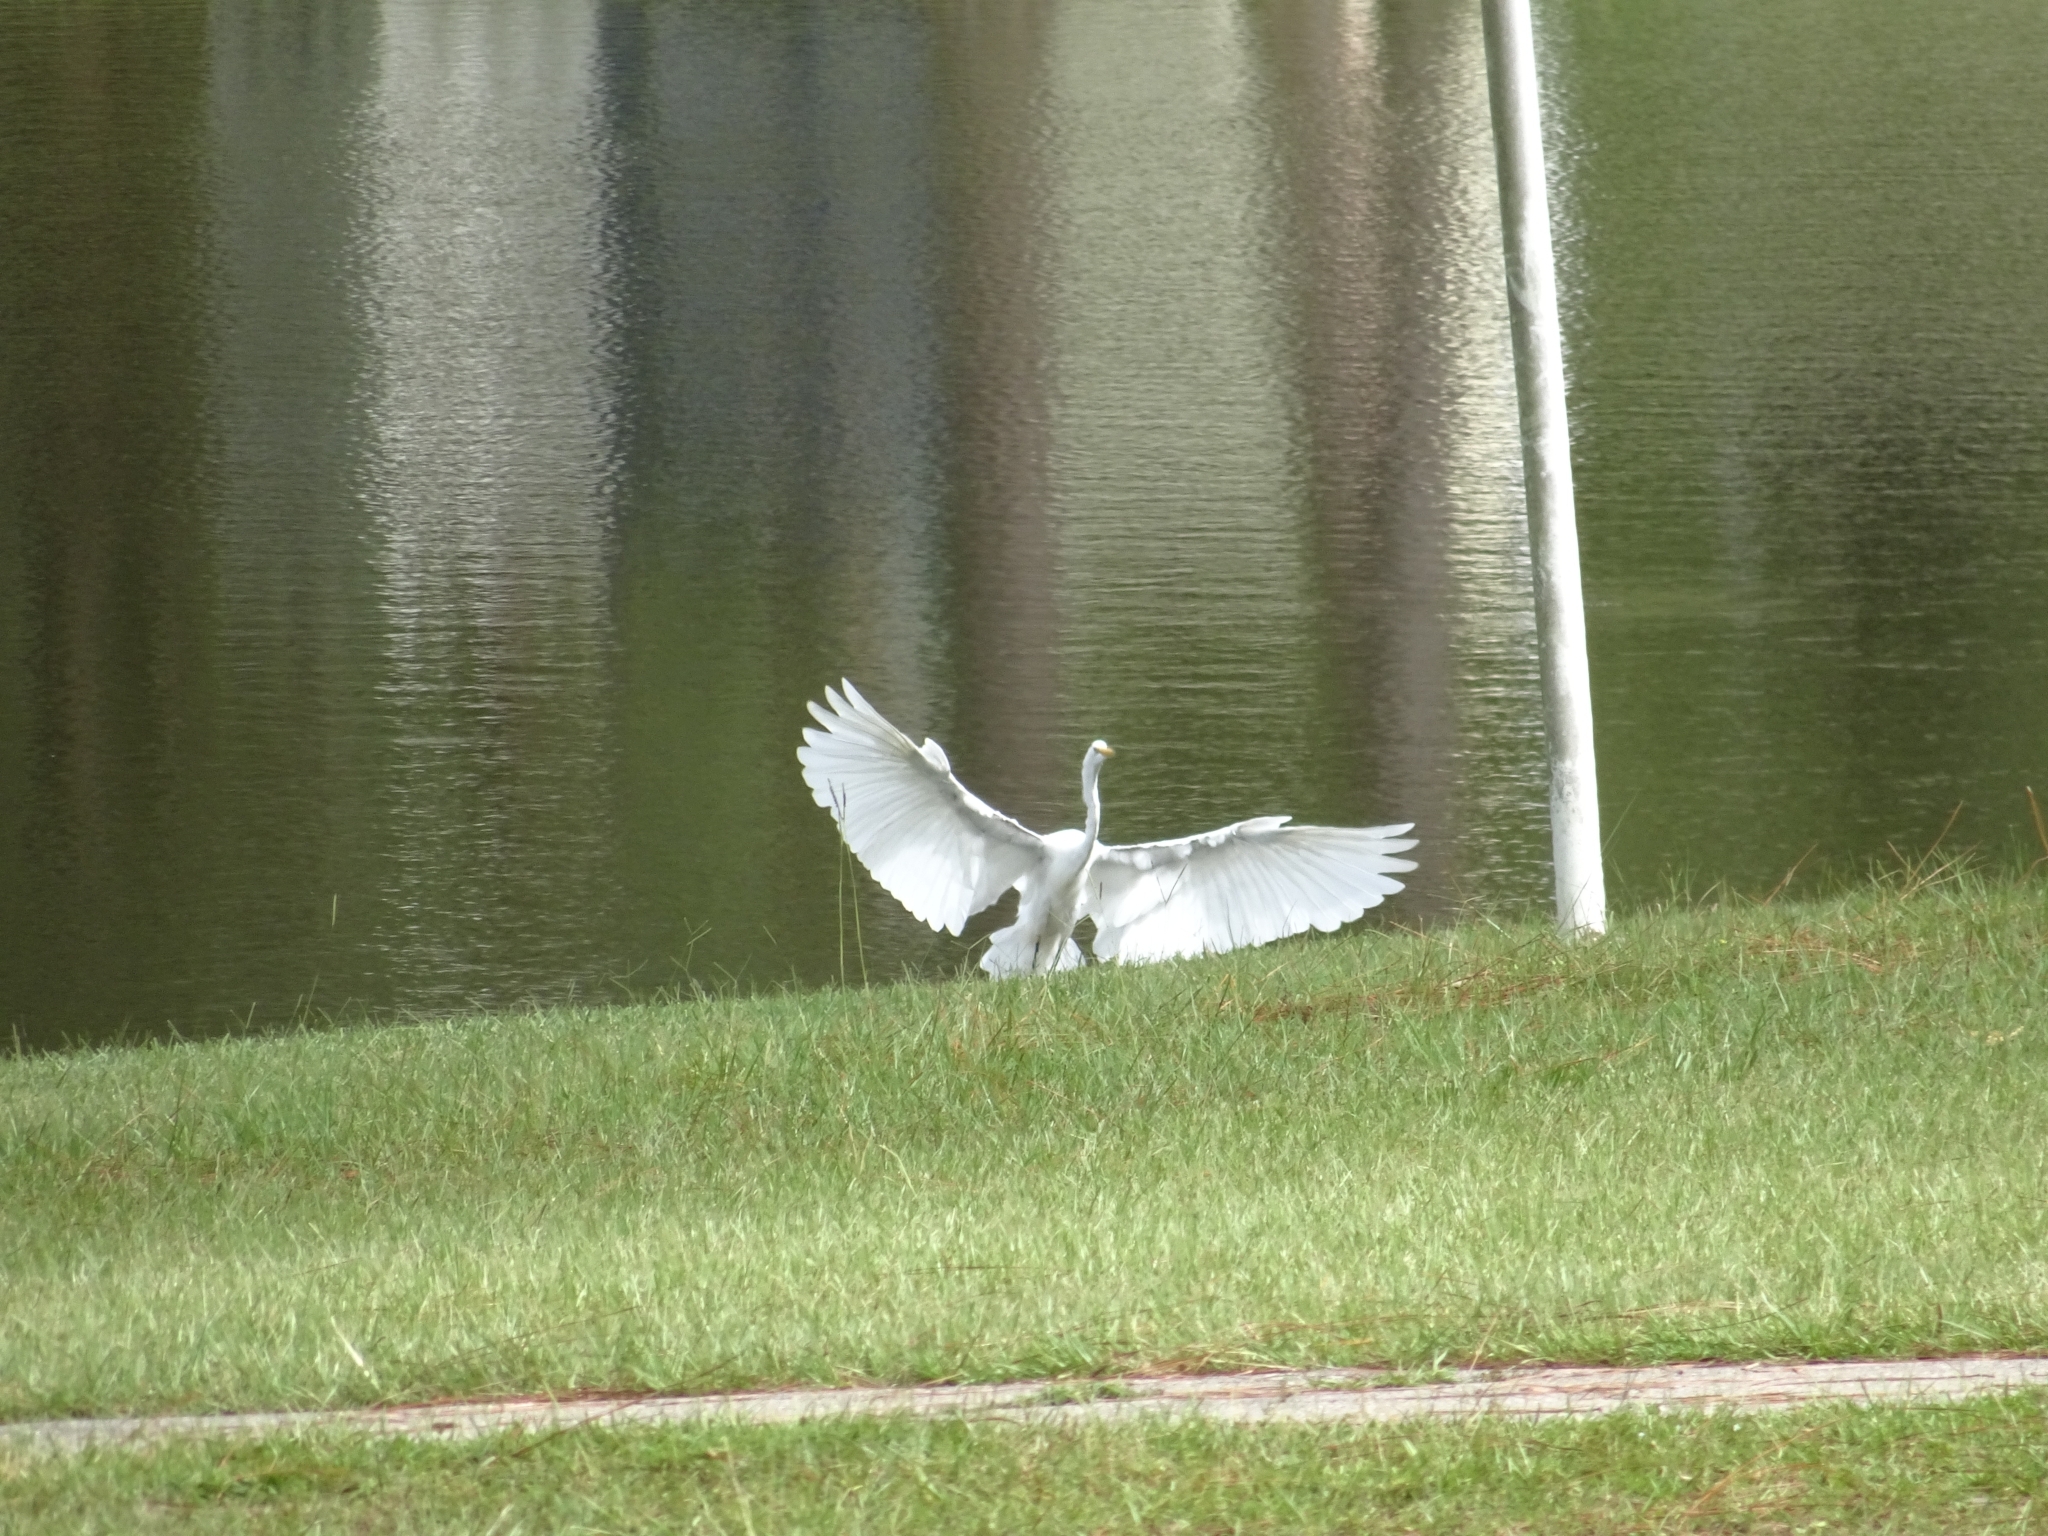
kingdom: Animalia
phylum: Chordata
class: Aves
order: Pelecaniformes
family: Ardeidae
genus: Ardea
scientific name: Ardea alba
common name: Great egret
